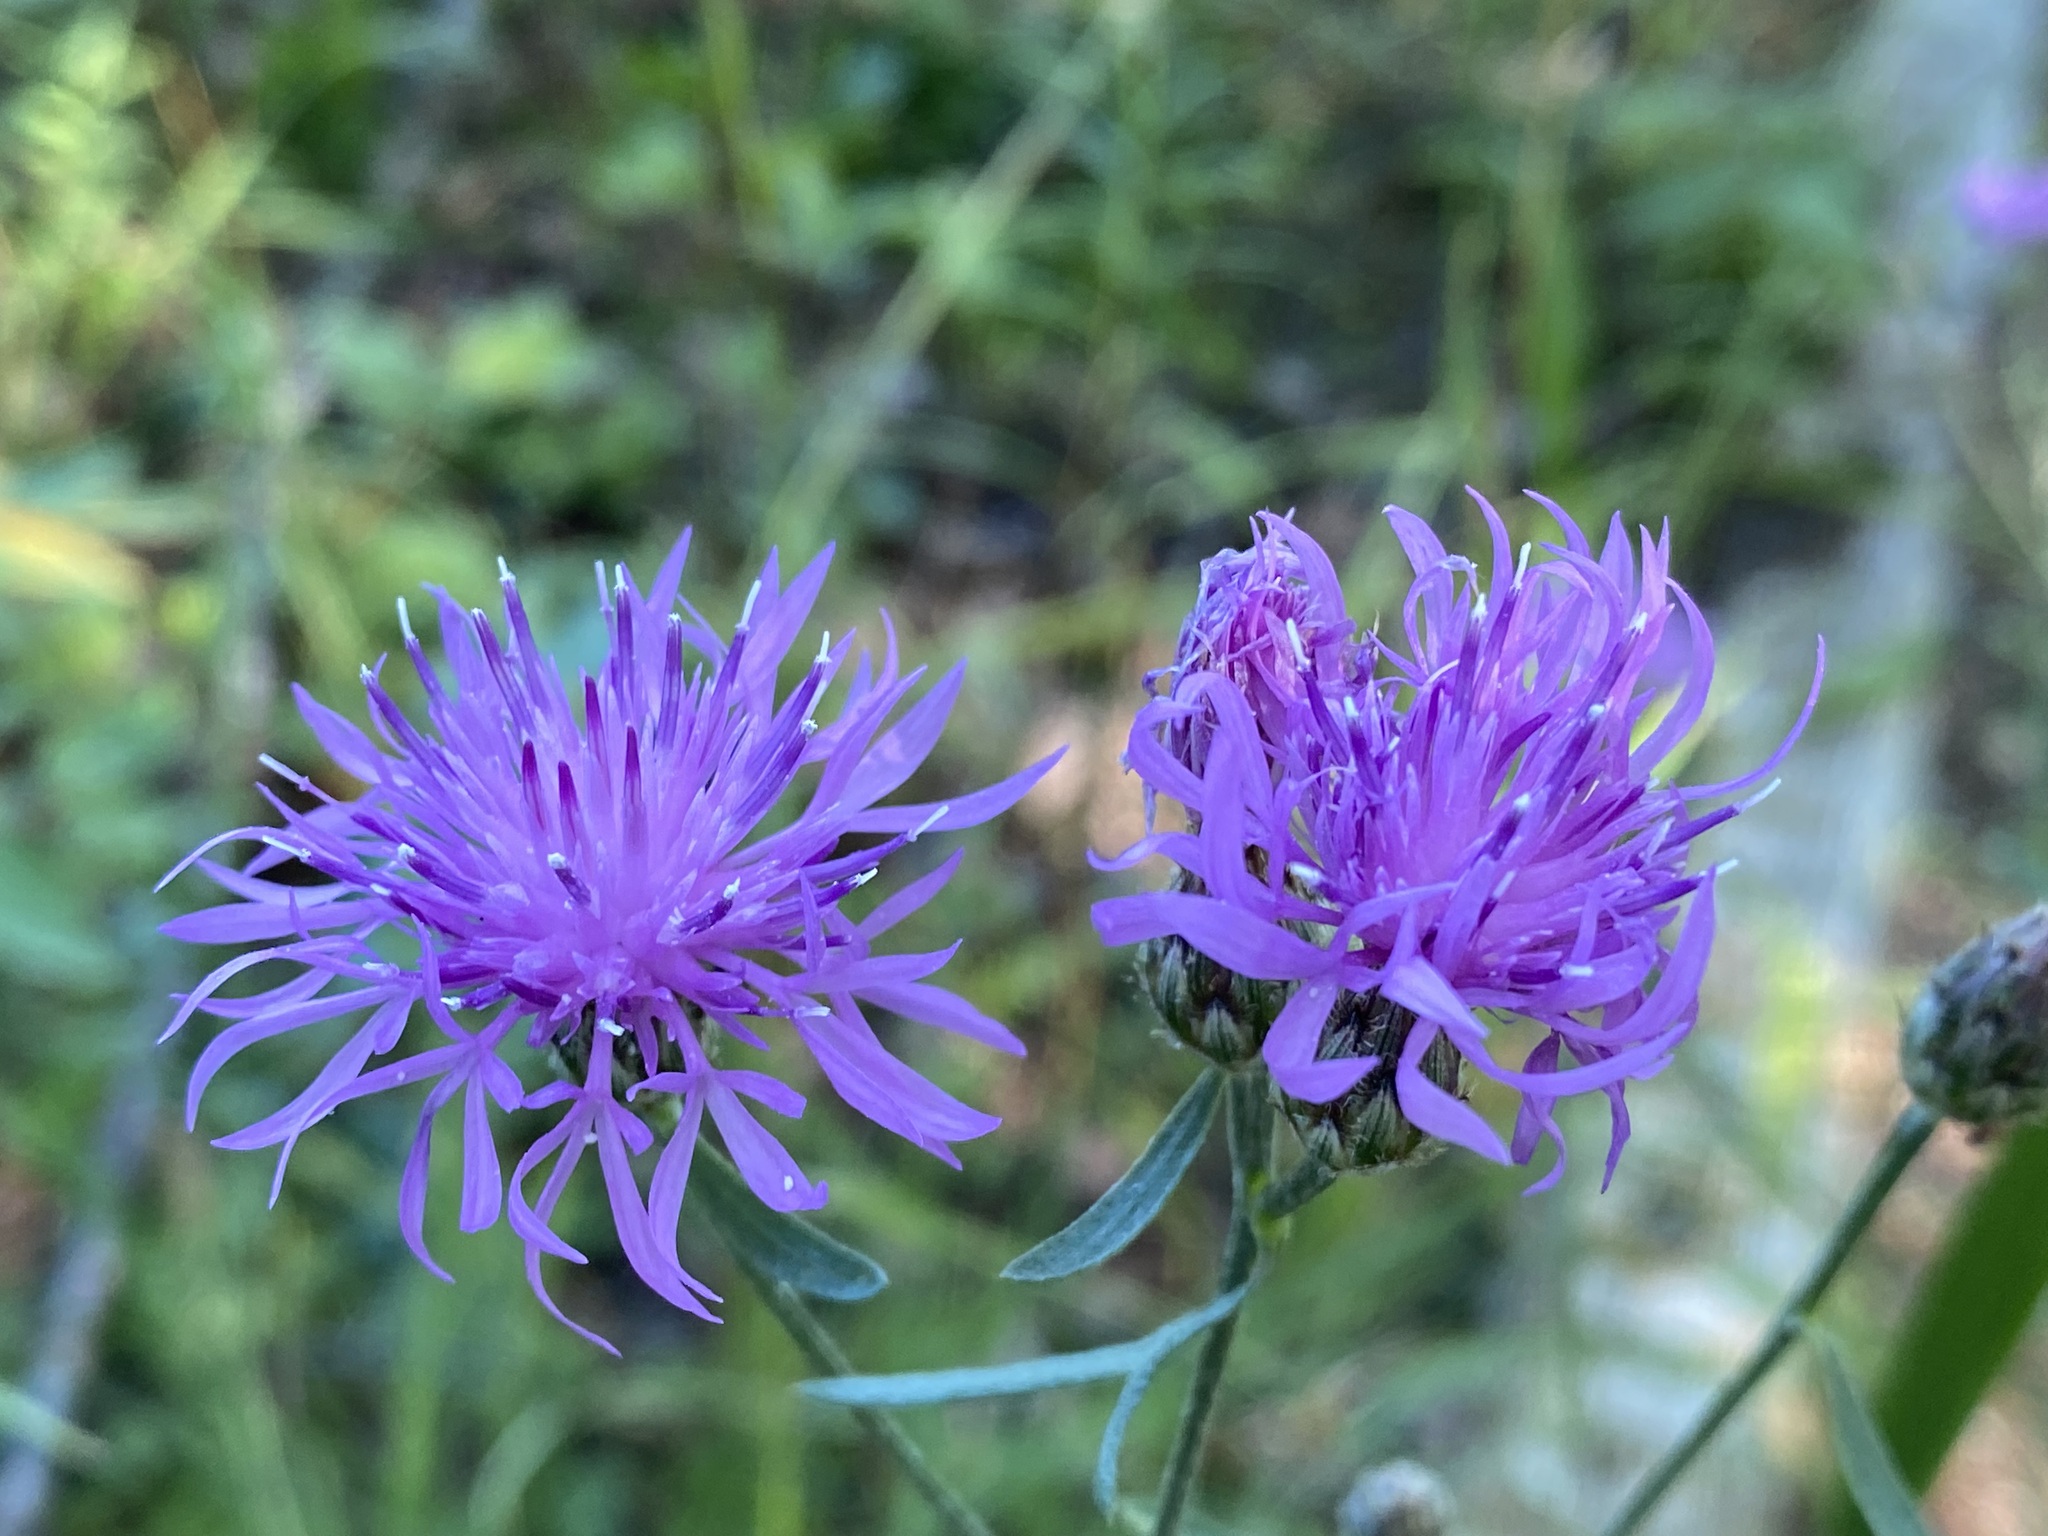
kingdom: Plantae
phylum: Tracheophyta
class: Magnoliopsida
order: Asterales
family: Asteraceae
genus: Centaurea
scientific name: Centaurea stoebe
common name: Spotted knapweed
